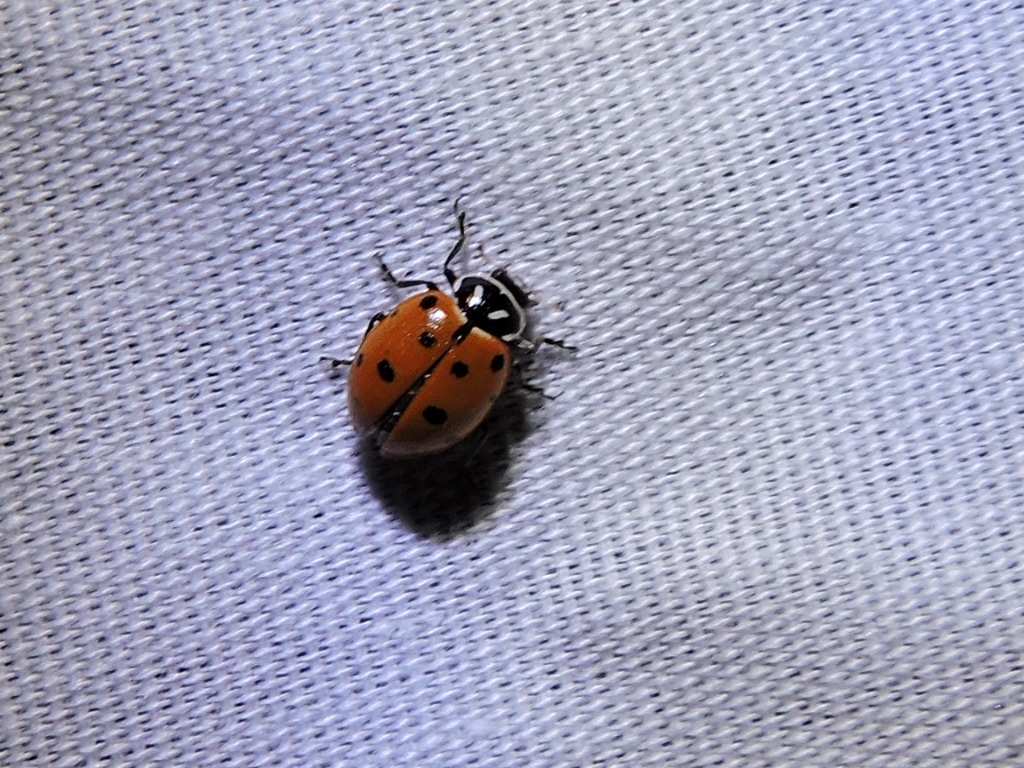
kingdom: Animalia
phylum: Arthropoda
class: Insecta
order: Coleoptera
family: Coccinellidae
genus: Hippodamia
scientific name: Hippodamia convergens
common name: Convergent lady beetle
